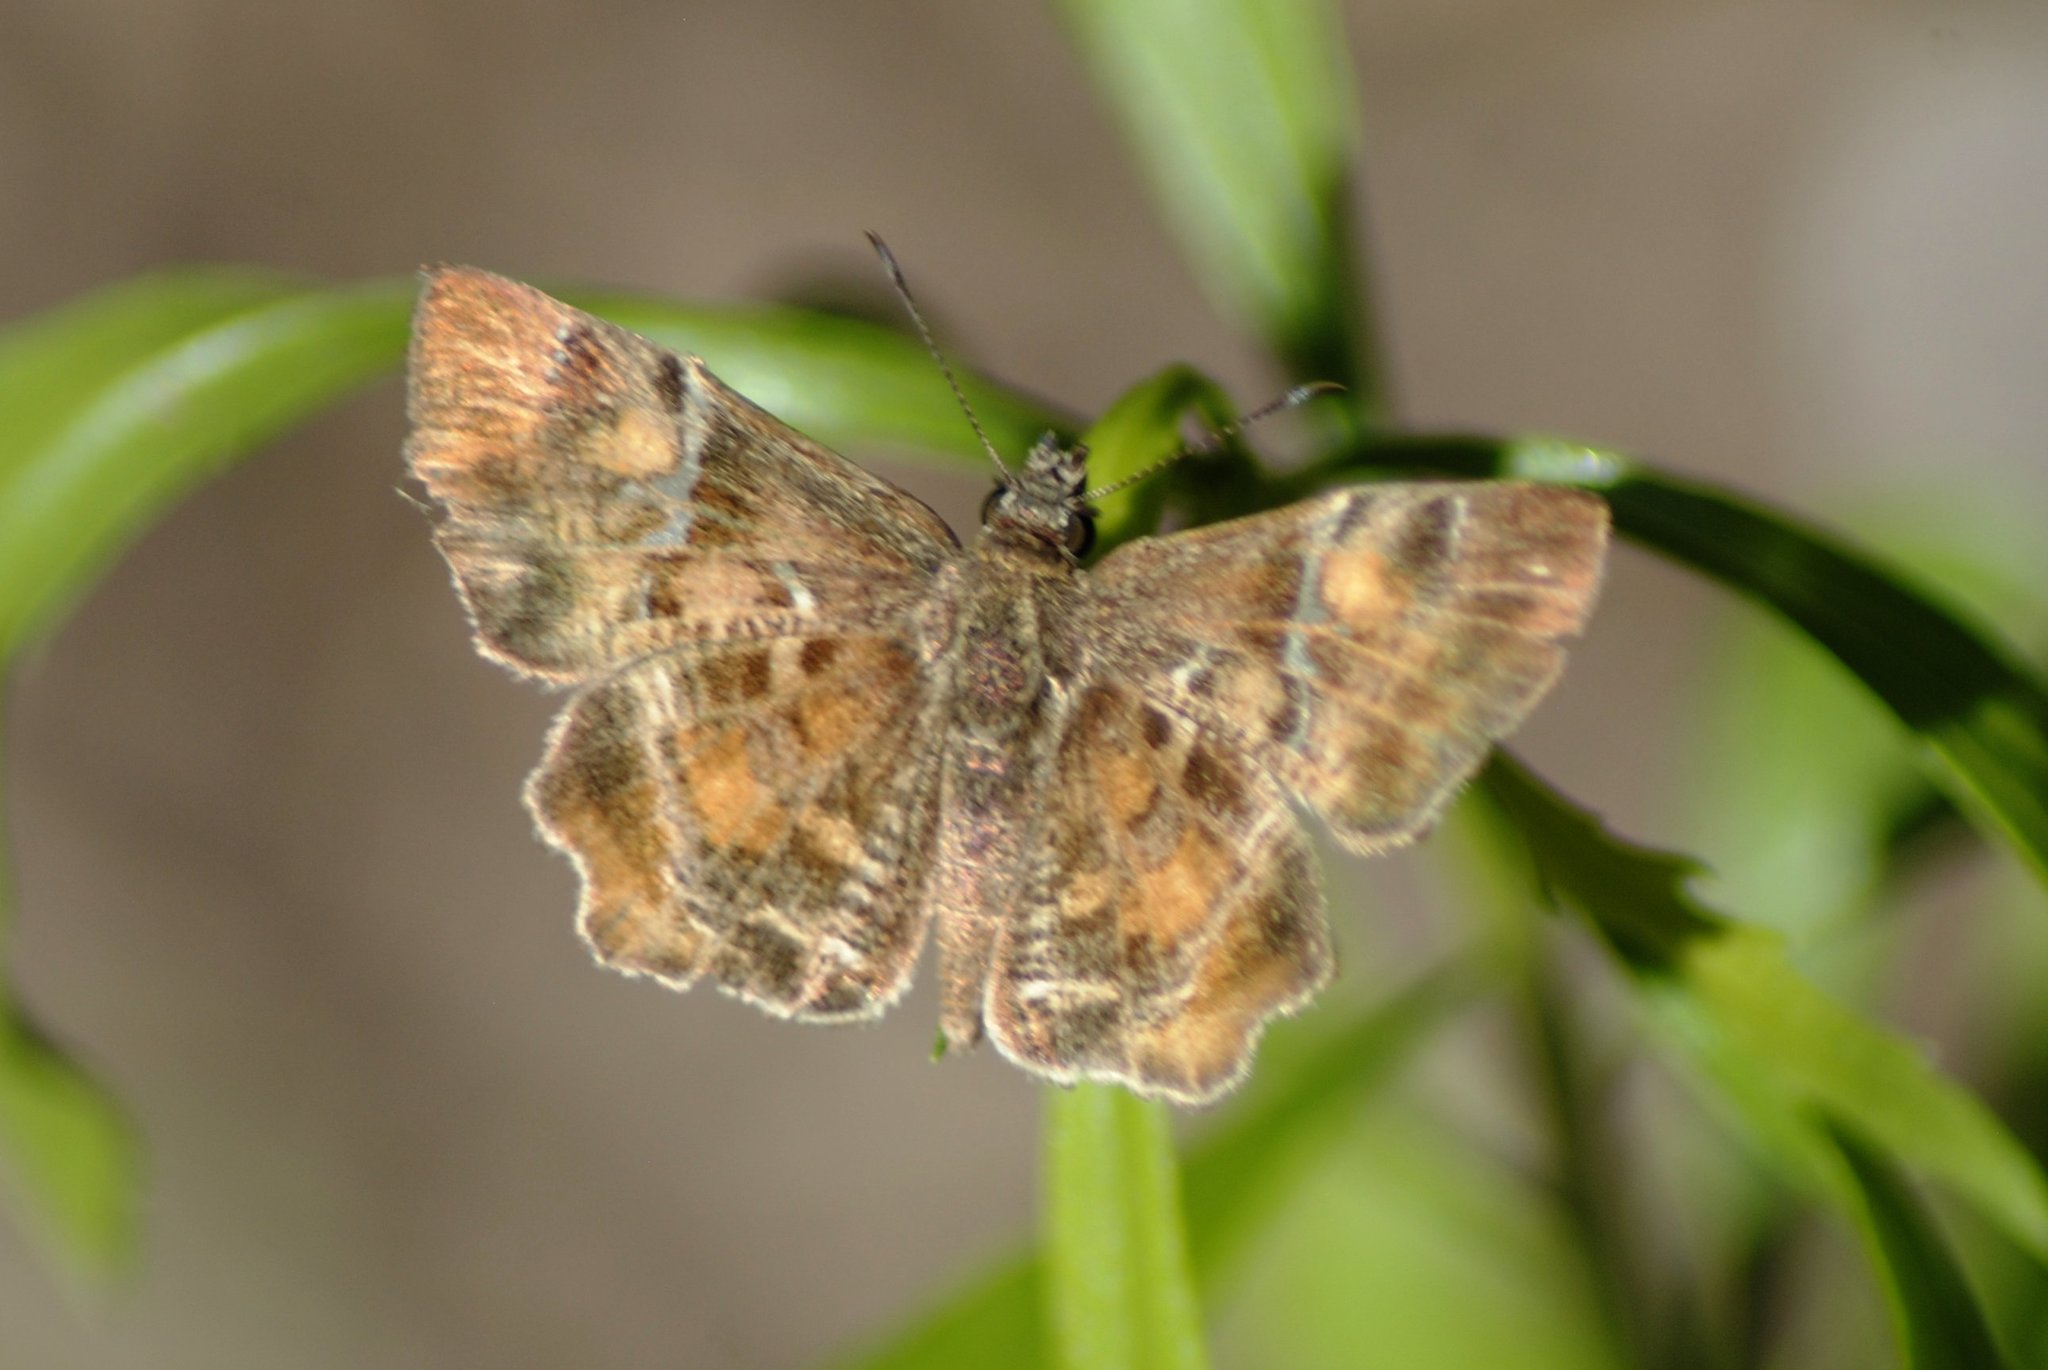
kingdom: Animalia
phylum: Arthropoda
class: Insecta
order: Lepidoptera
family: Hesperiidae
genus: Systasea
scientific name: Systasea pulverulenta
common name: Texas powdered skipper
